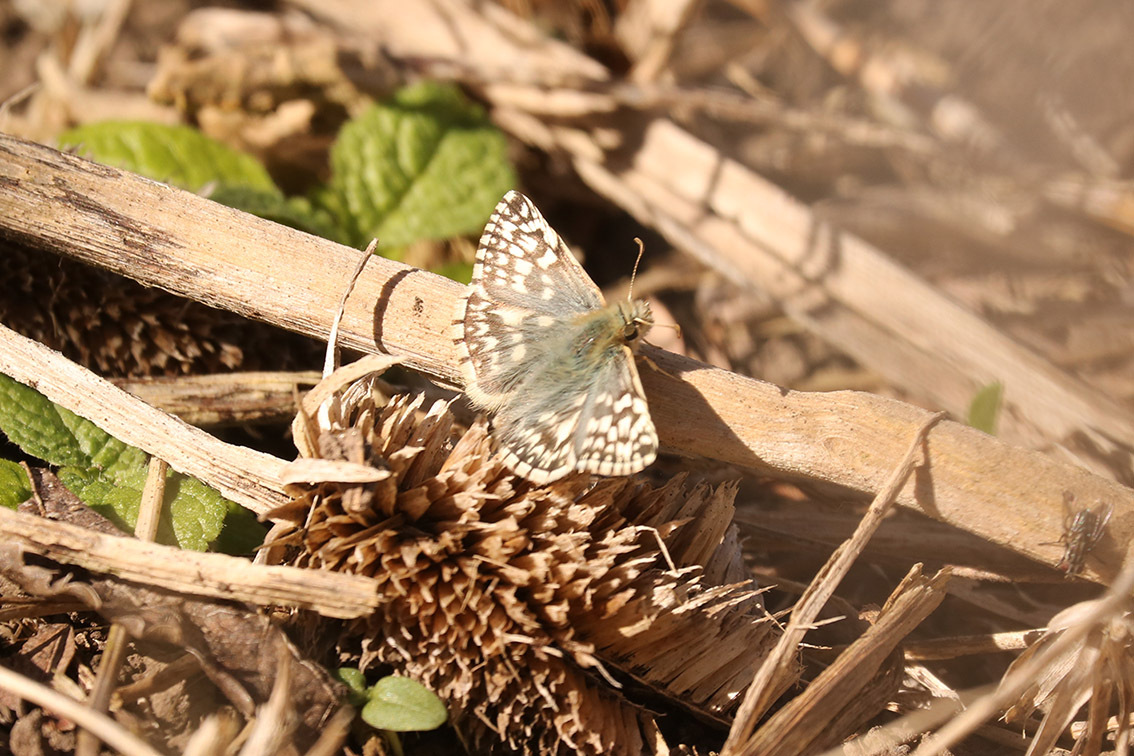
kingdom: Animalia
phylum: Arthropoda
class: Insecta
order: Lepidoptera
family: Hesperiidae
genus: Heliopetes
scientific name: Heliopetes americanus
